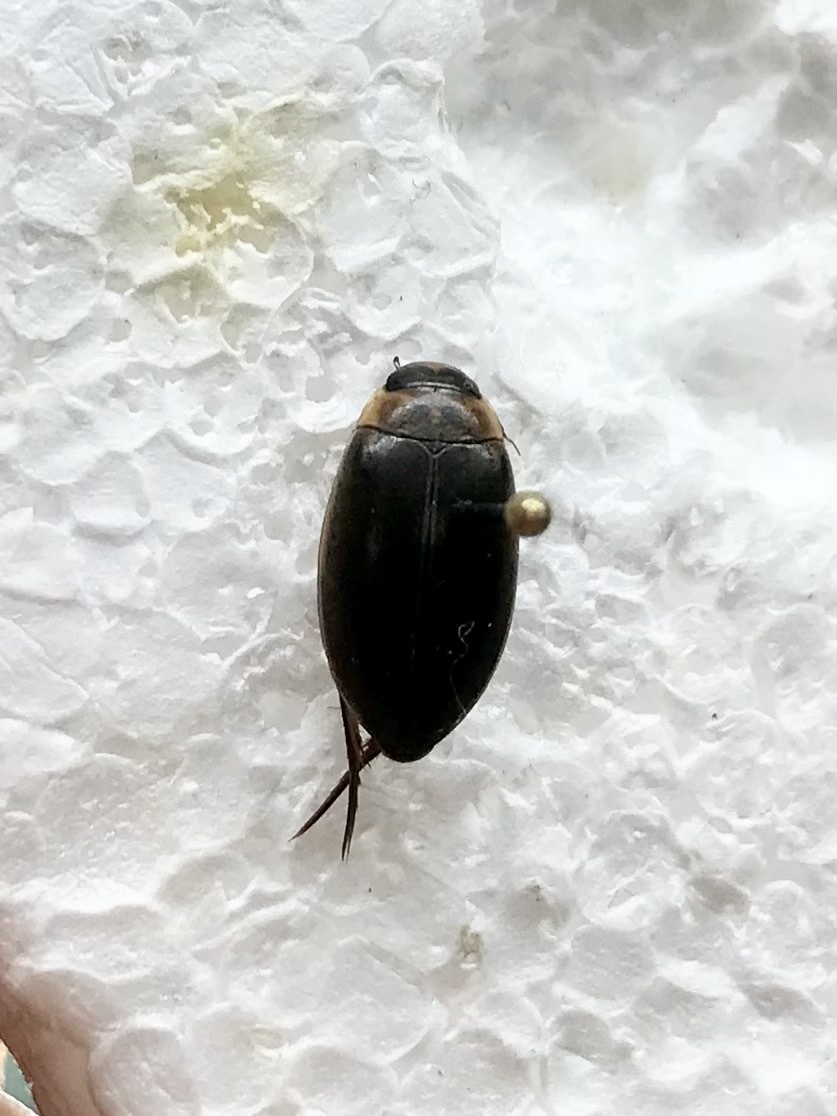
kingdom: Animalia
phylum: Arthropoda
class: Insecta
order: Coleoptera
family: Dytiscidae
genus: Rhantus
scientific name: Rhantus binotatus
